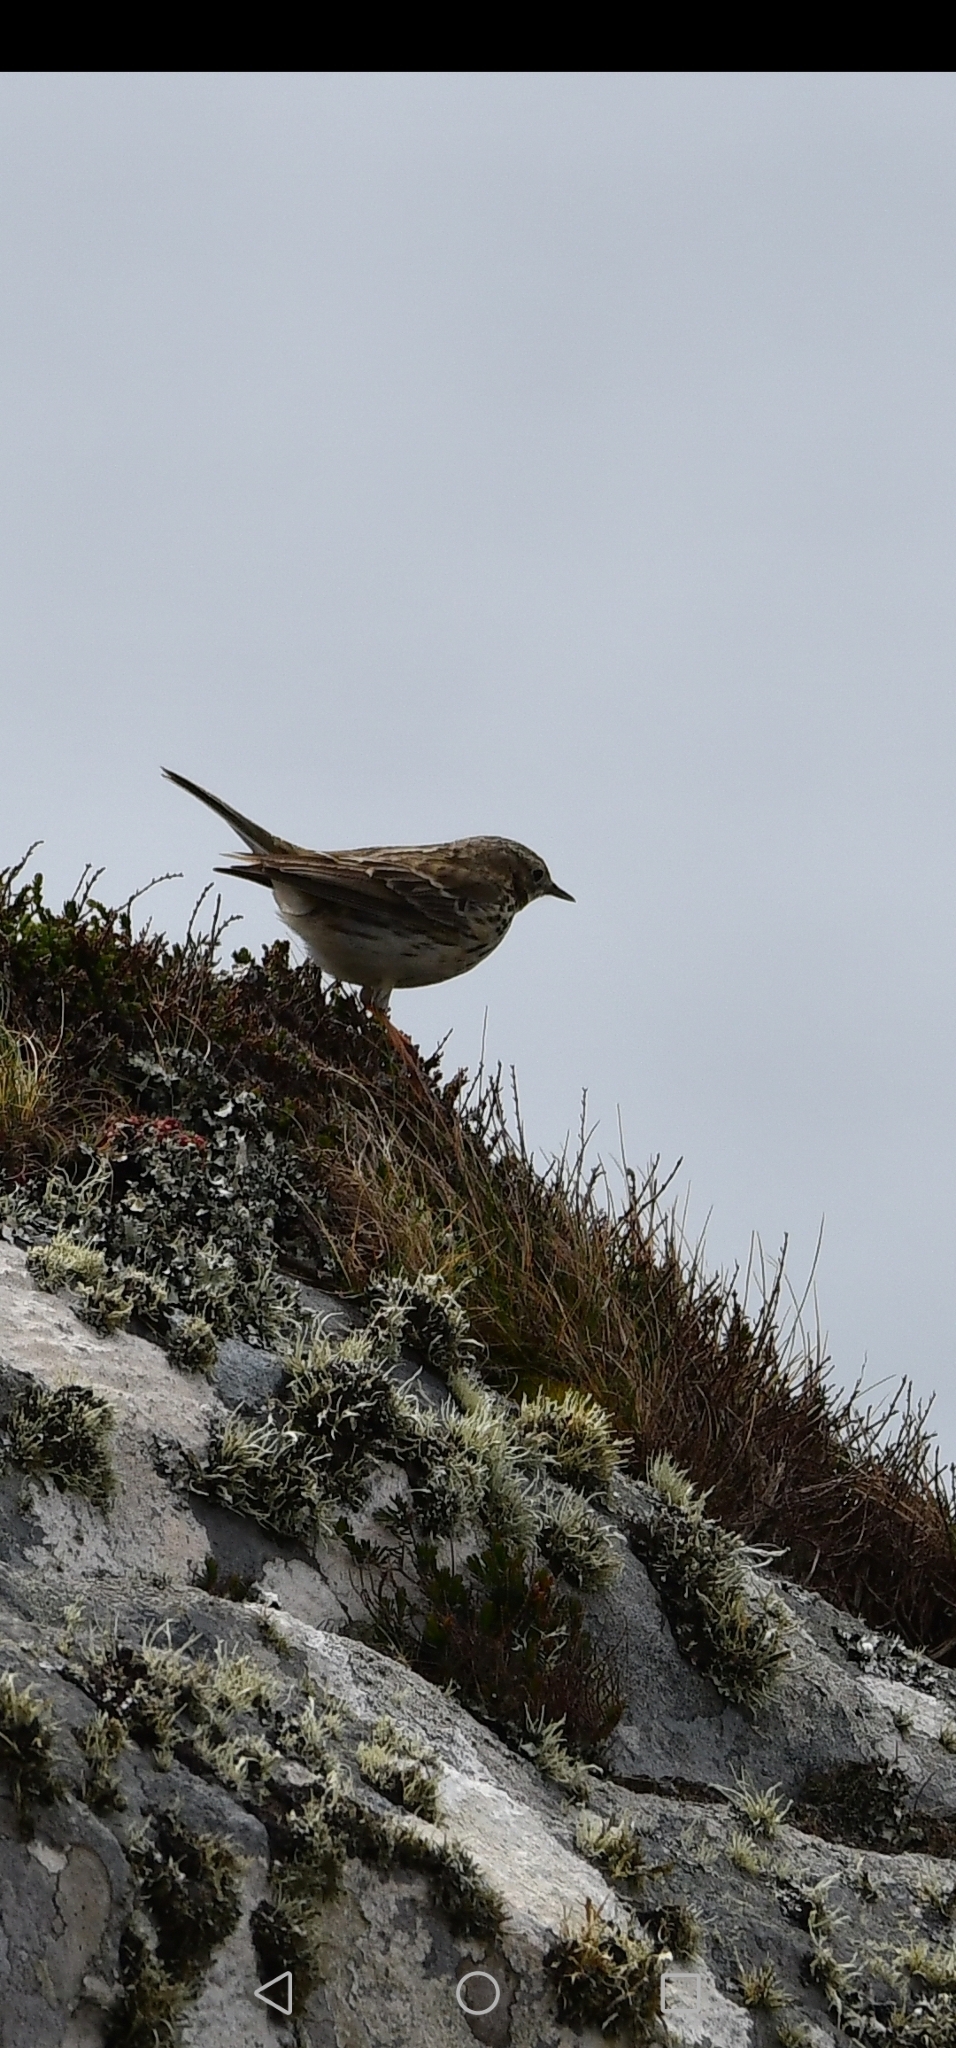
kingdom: Animalia
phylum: Chordata
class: Aves
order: Passeriformes
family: Motacillidae
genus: Anthus
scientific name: Anthus pratensis
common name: Meadow pipit
